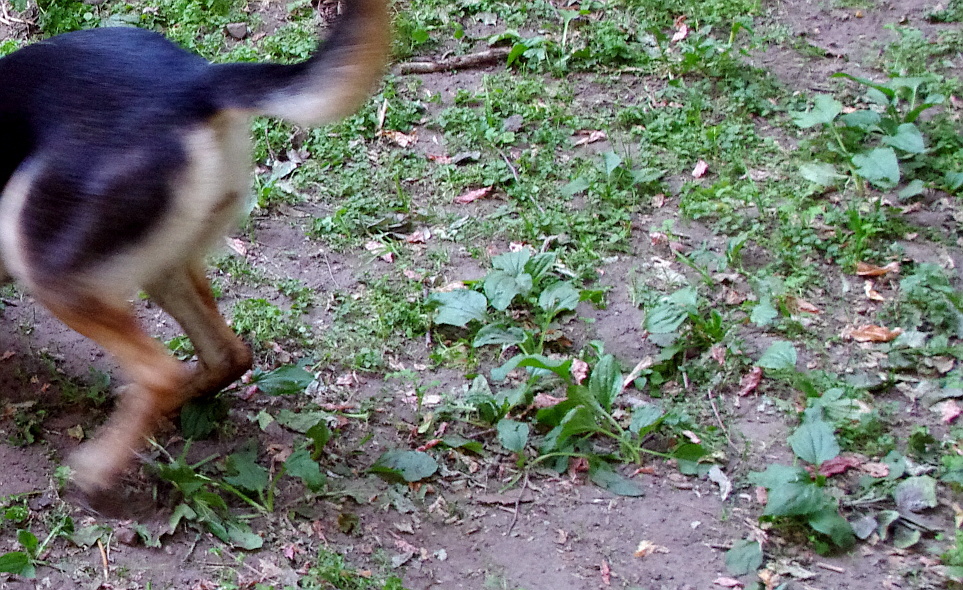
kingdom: Plantae
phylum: Tracheophyta
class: Magnoliopsida
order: Lamiales
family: Plantaginaceae
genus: Plantago
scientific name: Plantago major
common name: Common plantain
